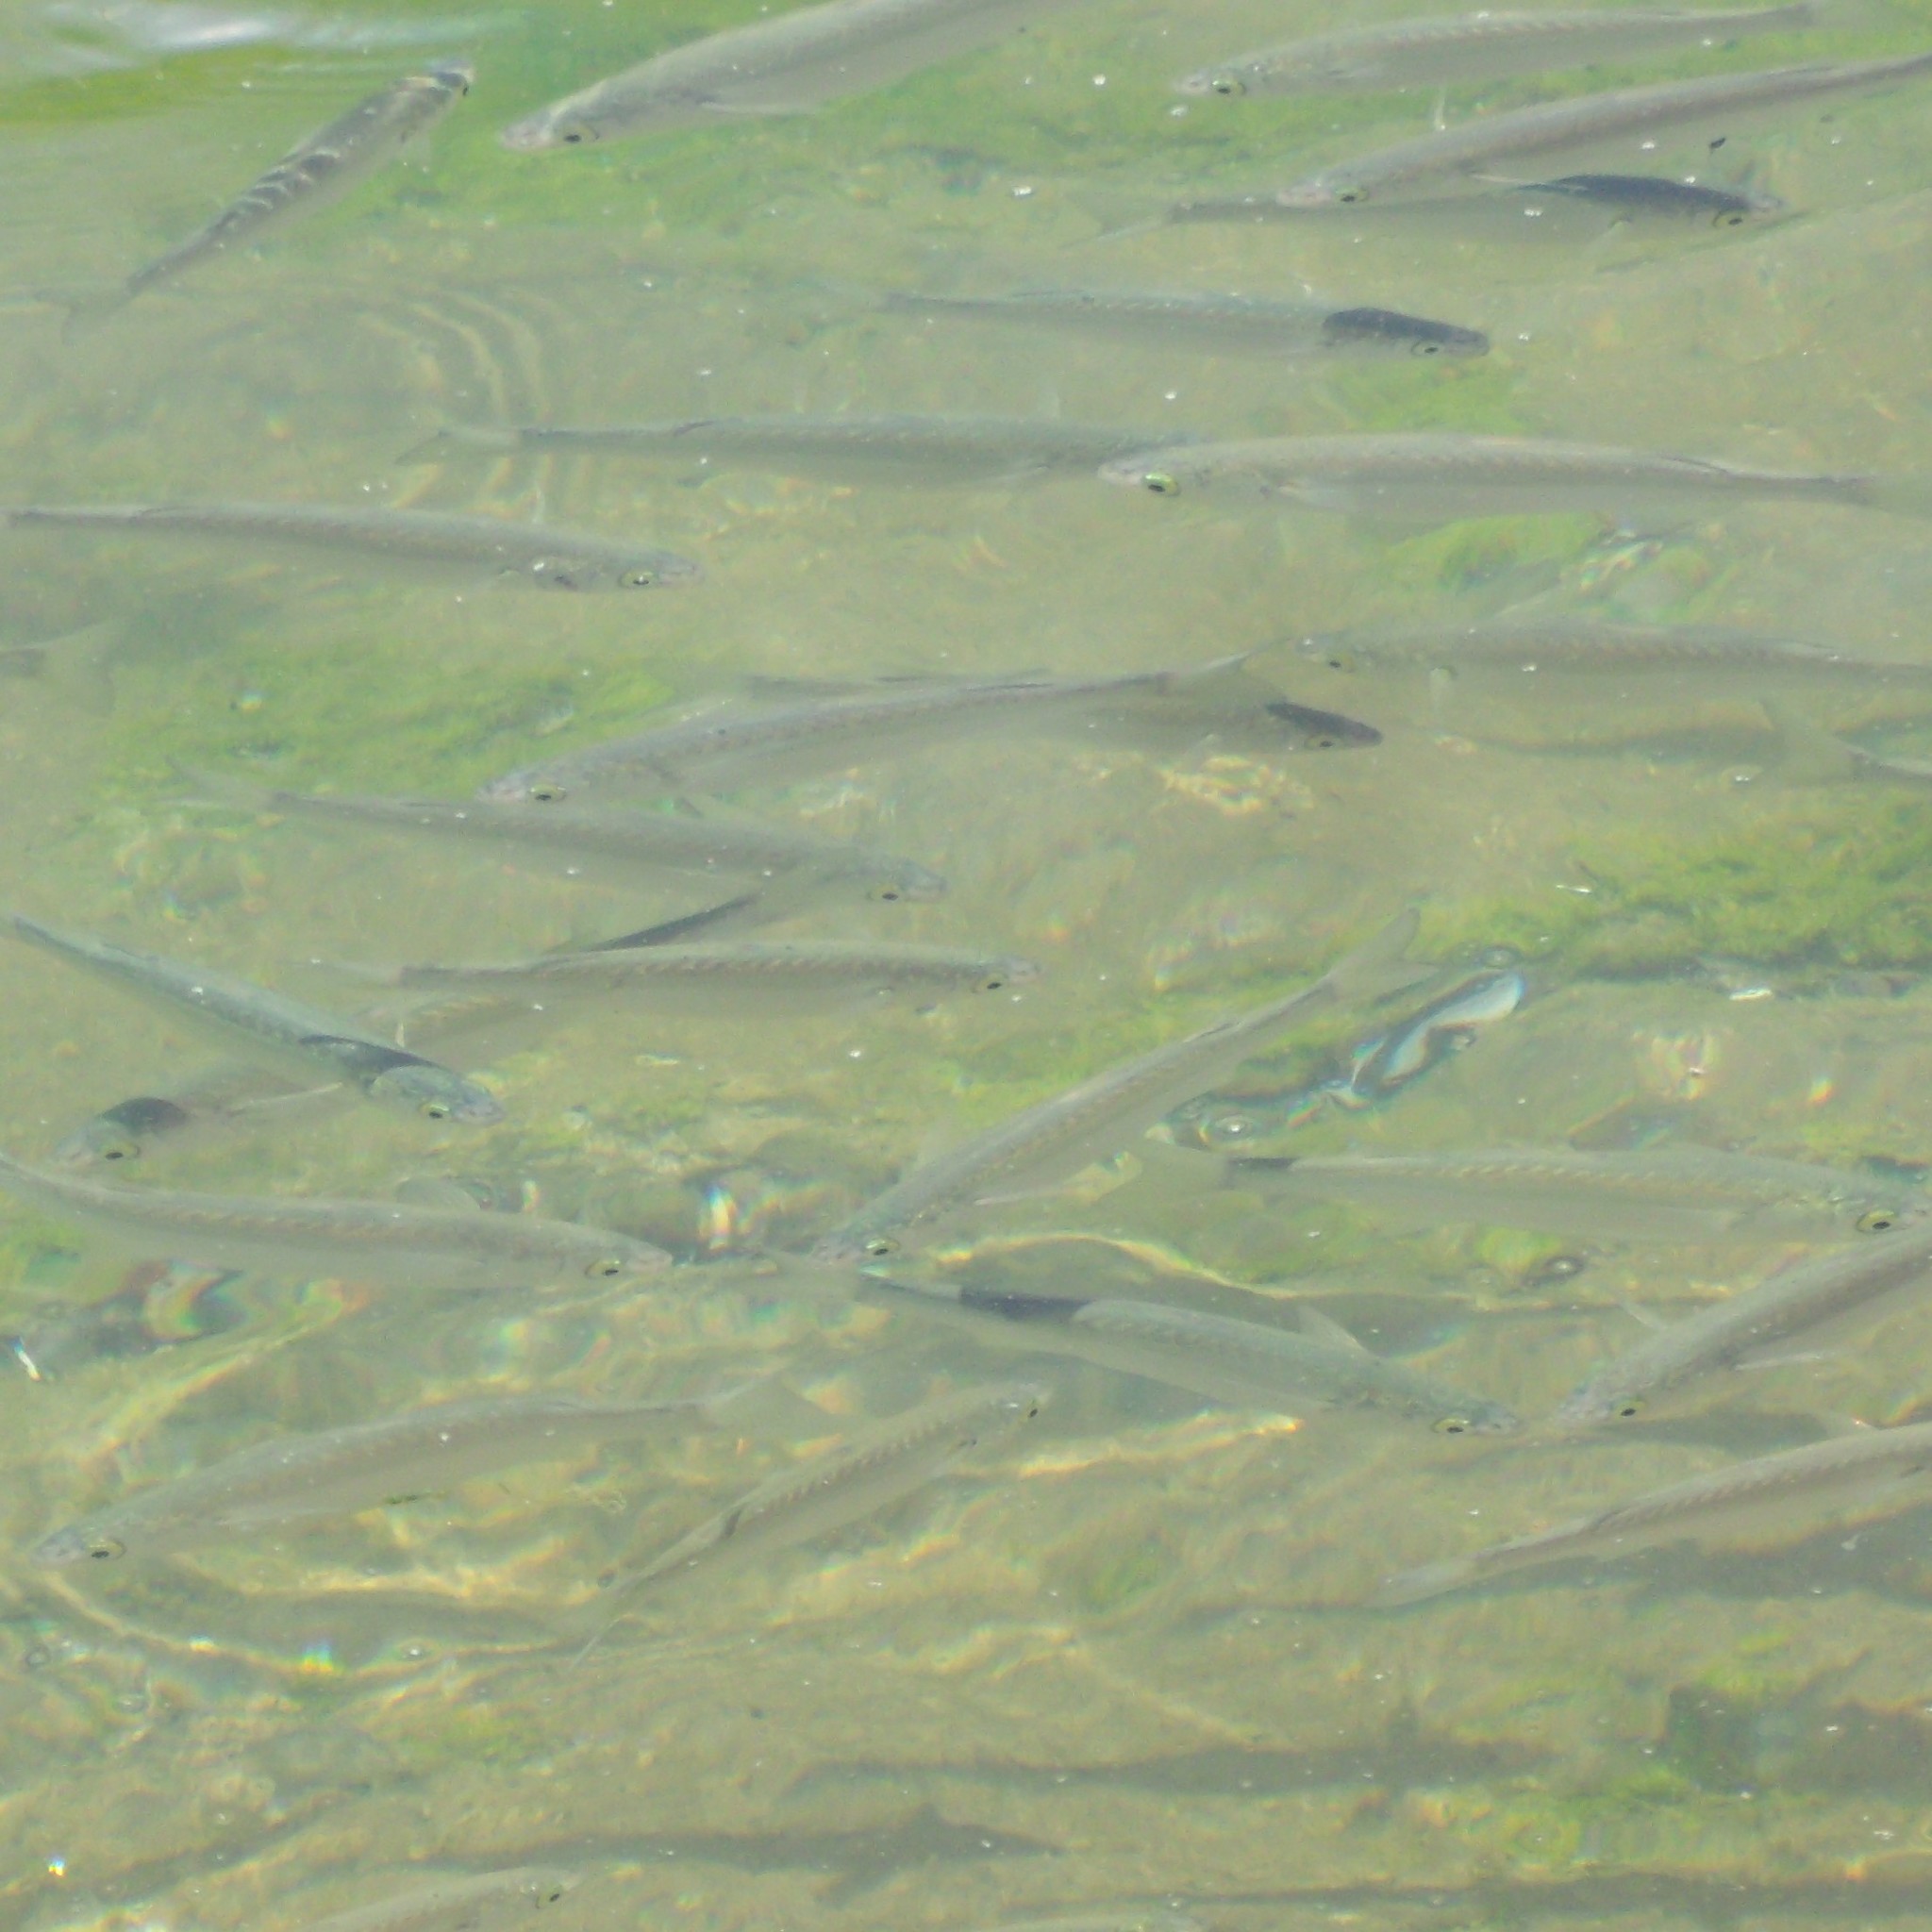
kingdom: Animalia
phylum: Chordata
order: Mugiliformes
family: Mugilidae
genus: Aldrichetta
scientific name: Aldrichetta forsteri
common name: Yellow-eye mullet
